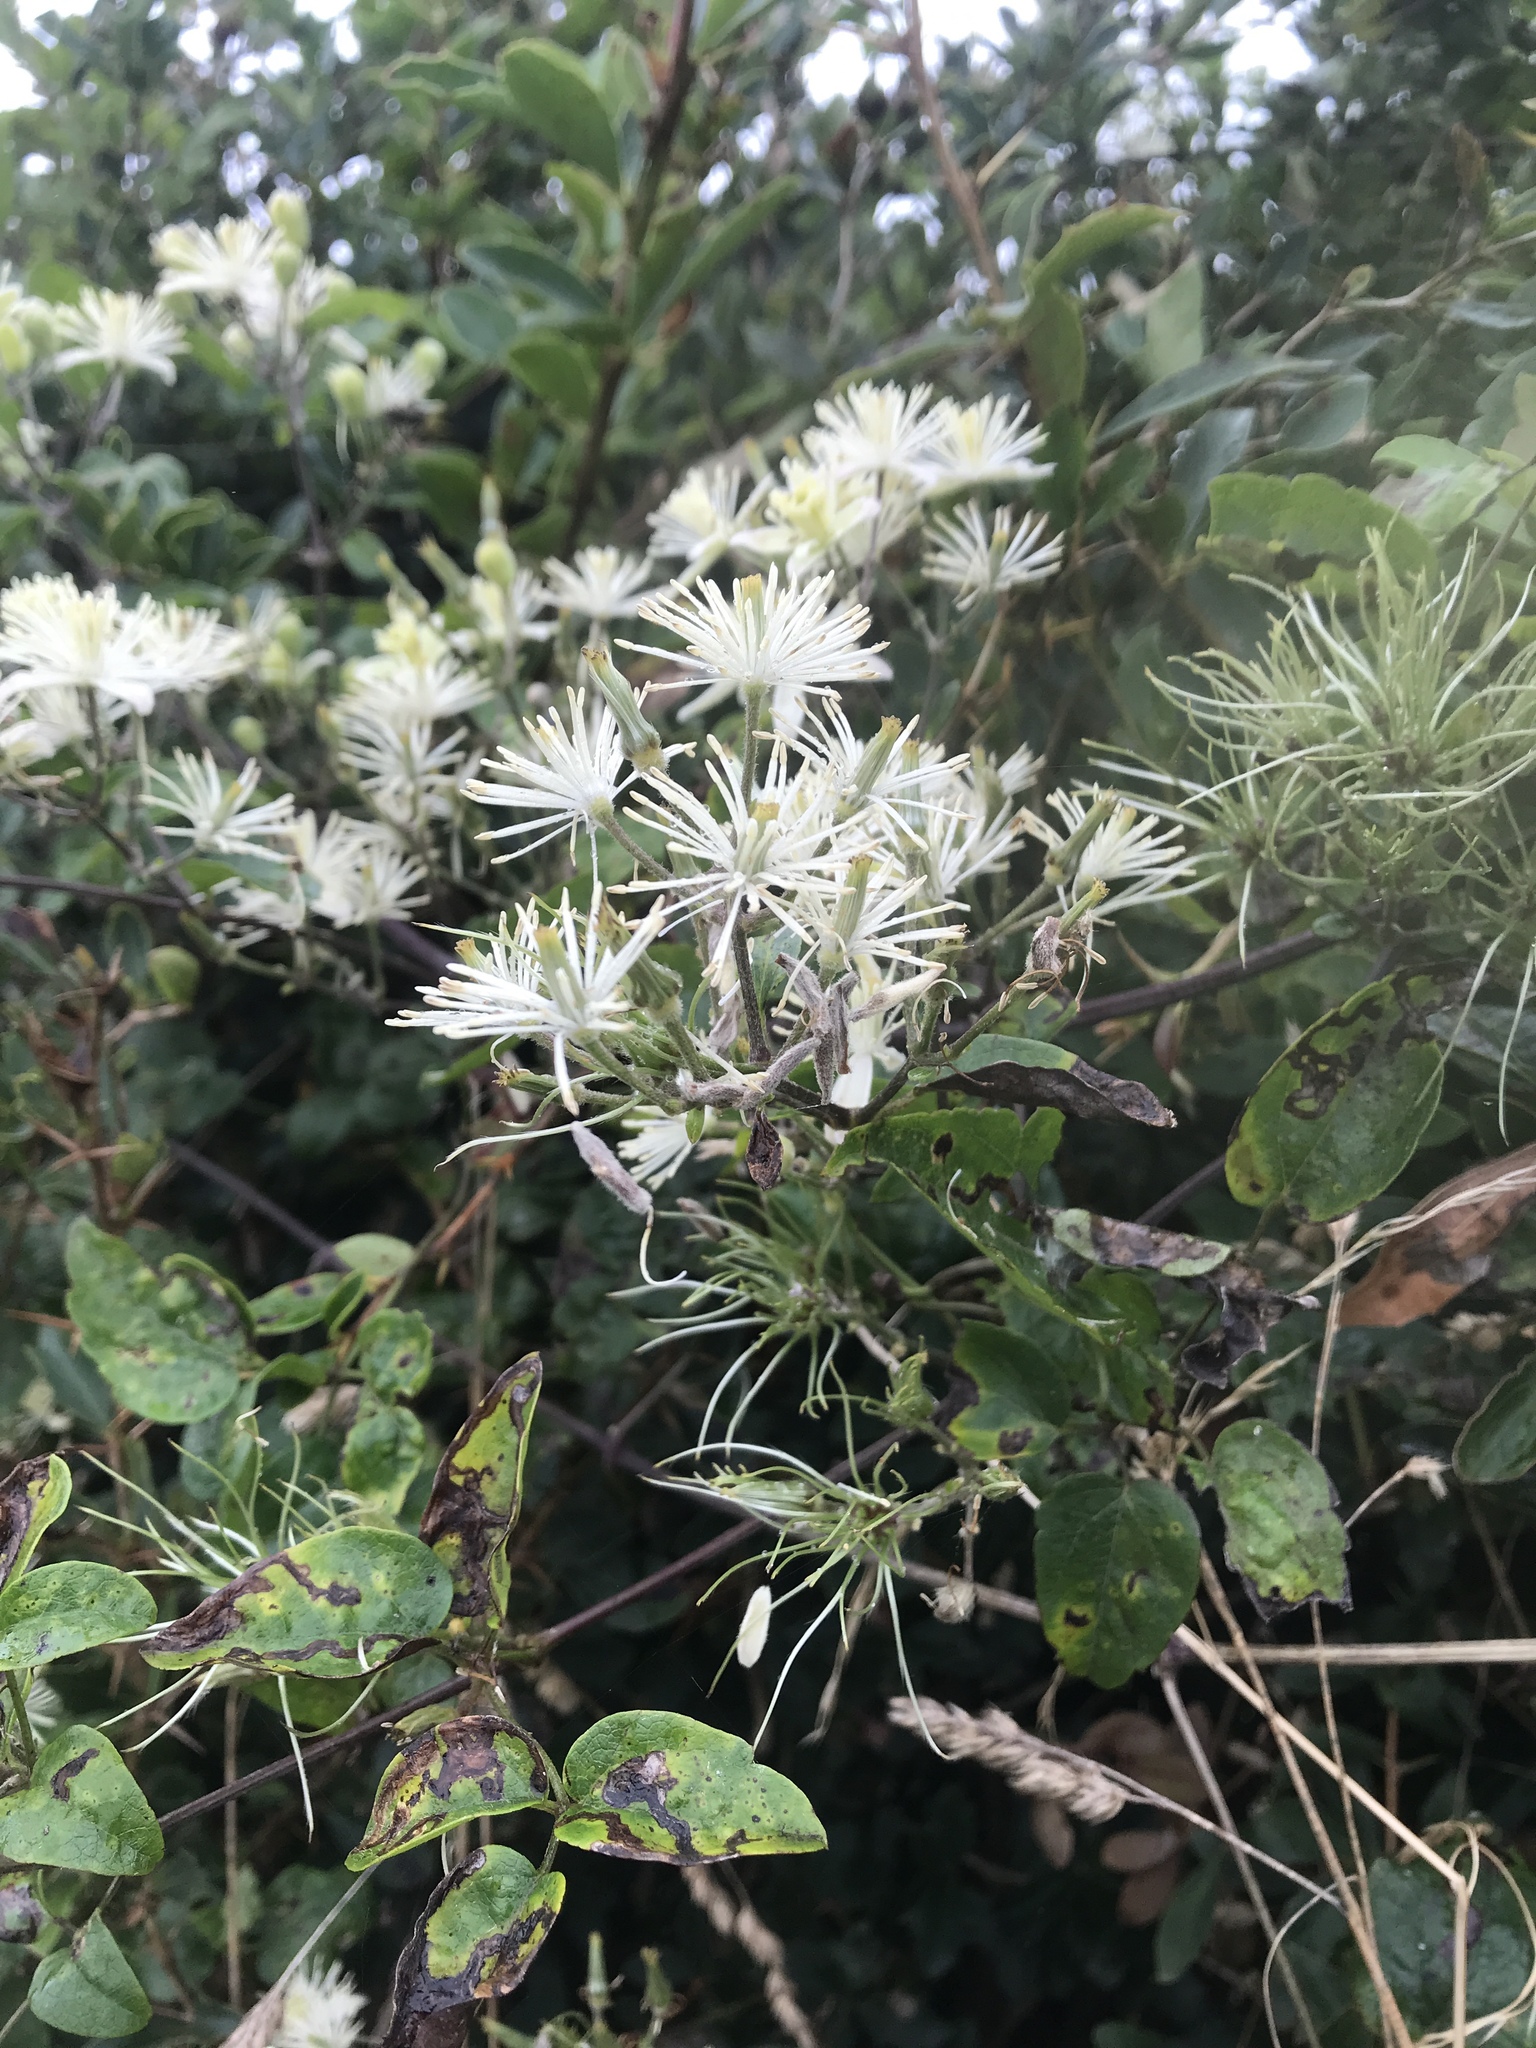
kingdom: Plantae
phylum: Tracheophyta
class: Magnoliopsida
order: Ranunculales
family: Ranunculaceae
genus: Clematis
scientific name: Clematis vitalba
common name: Evergreen clematis
